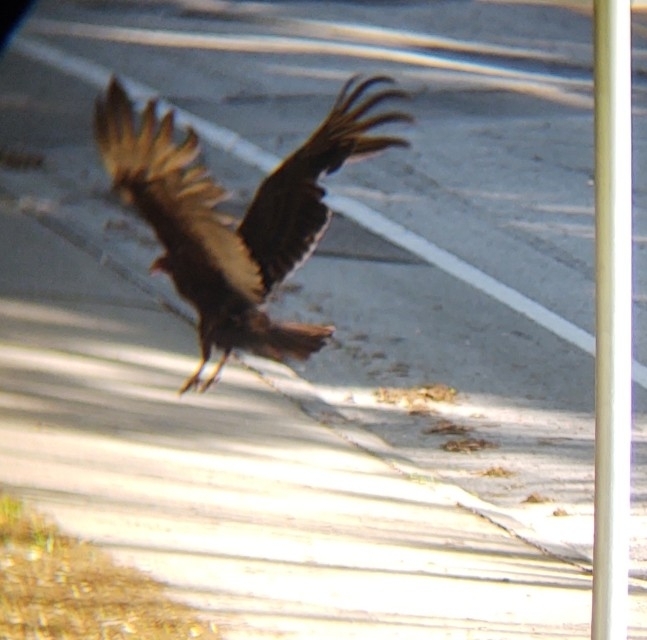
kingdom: Animalia
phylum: Chordata
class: Aves
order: Accipitriformes
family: Cathartidae
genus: Cathartes
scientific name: Cathartes aura
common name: Turkey vulture
